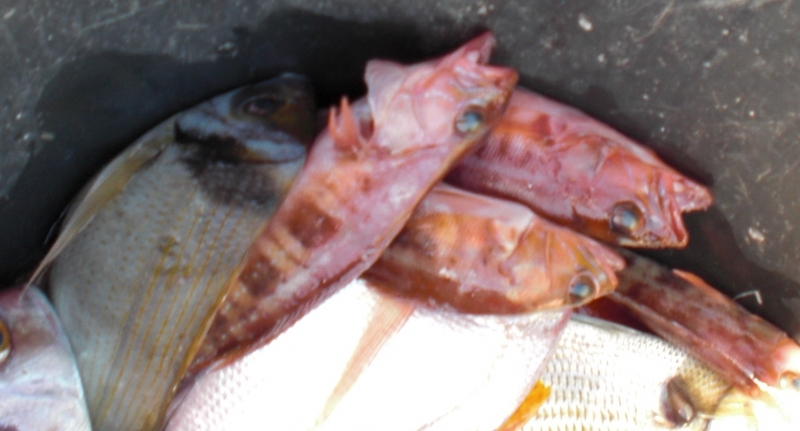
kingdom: Animalia
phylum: Chordata
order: Perciformes
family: Sparidae
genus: Diplodus
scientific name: Diplodus vulgaris
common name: Common two-banded seabream
